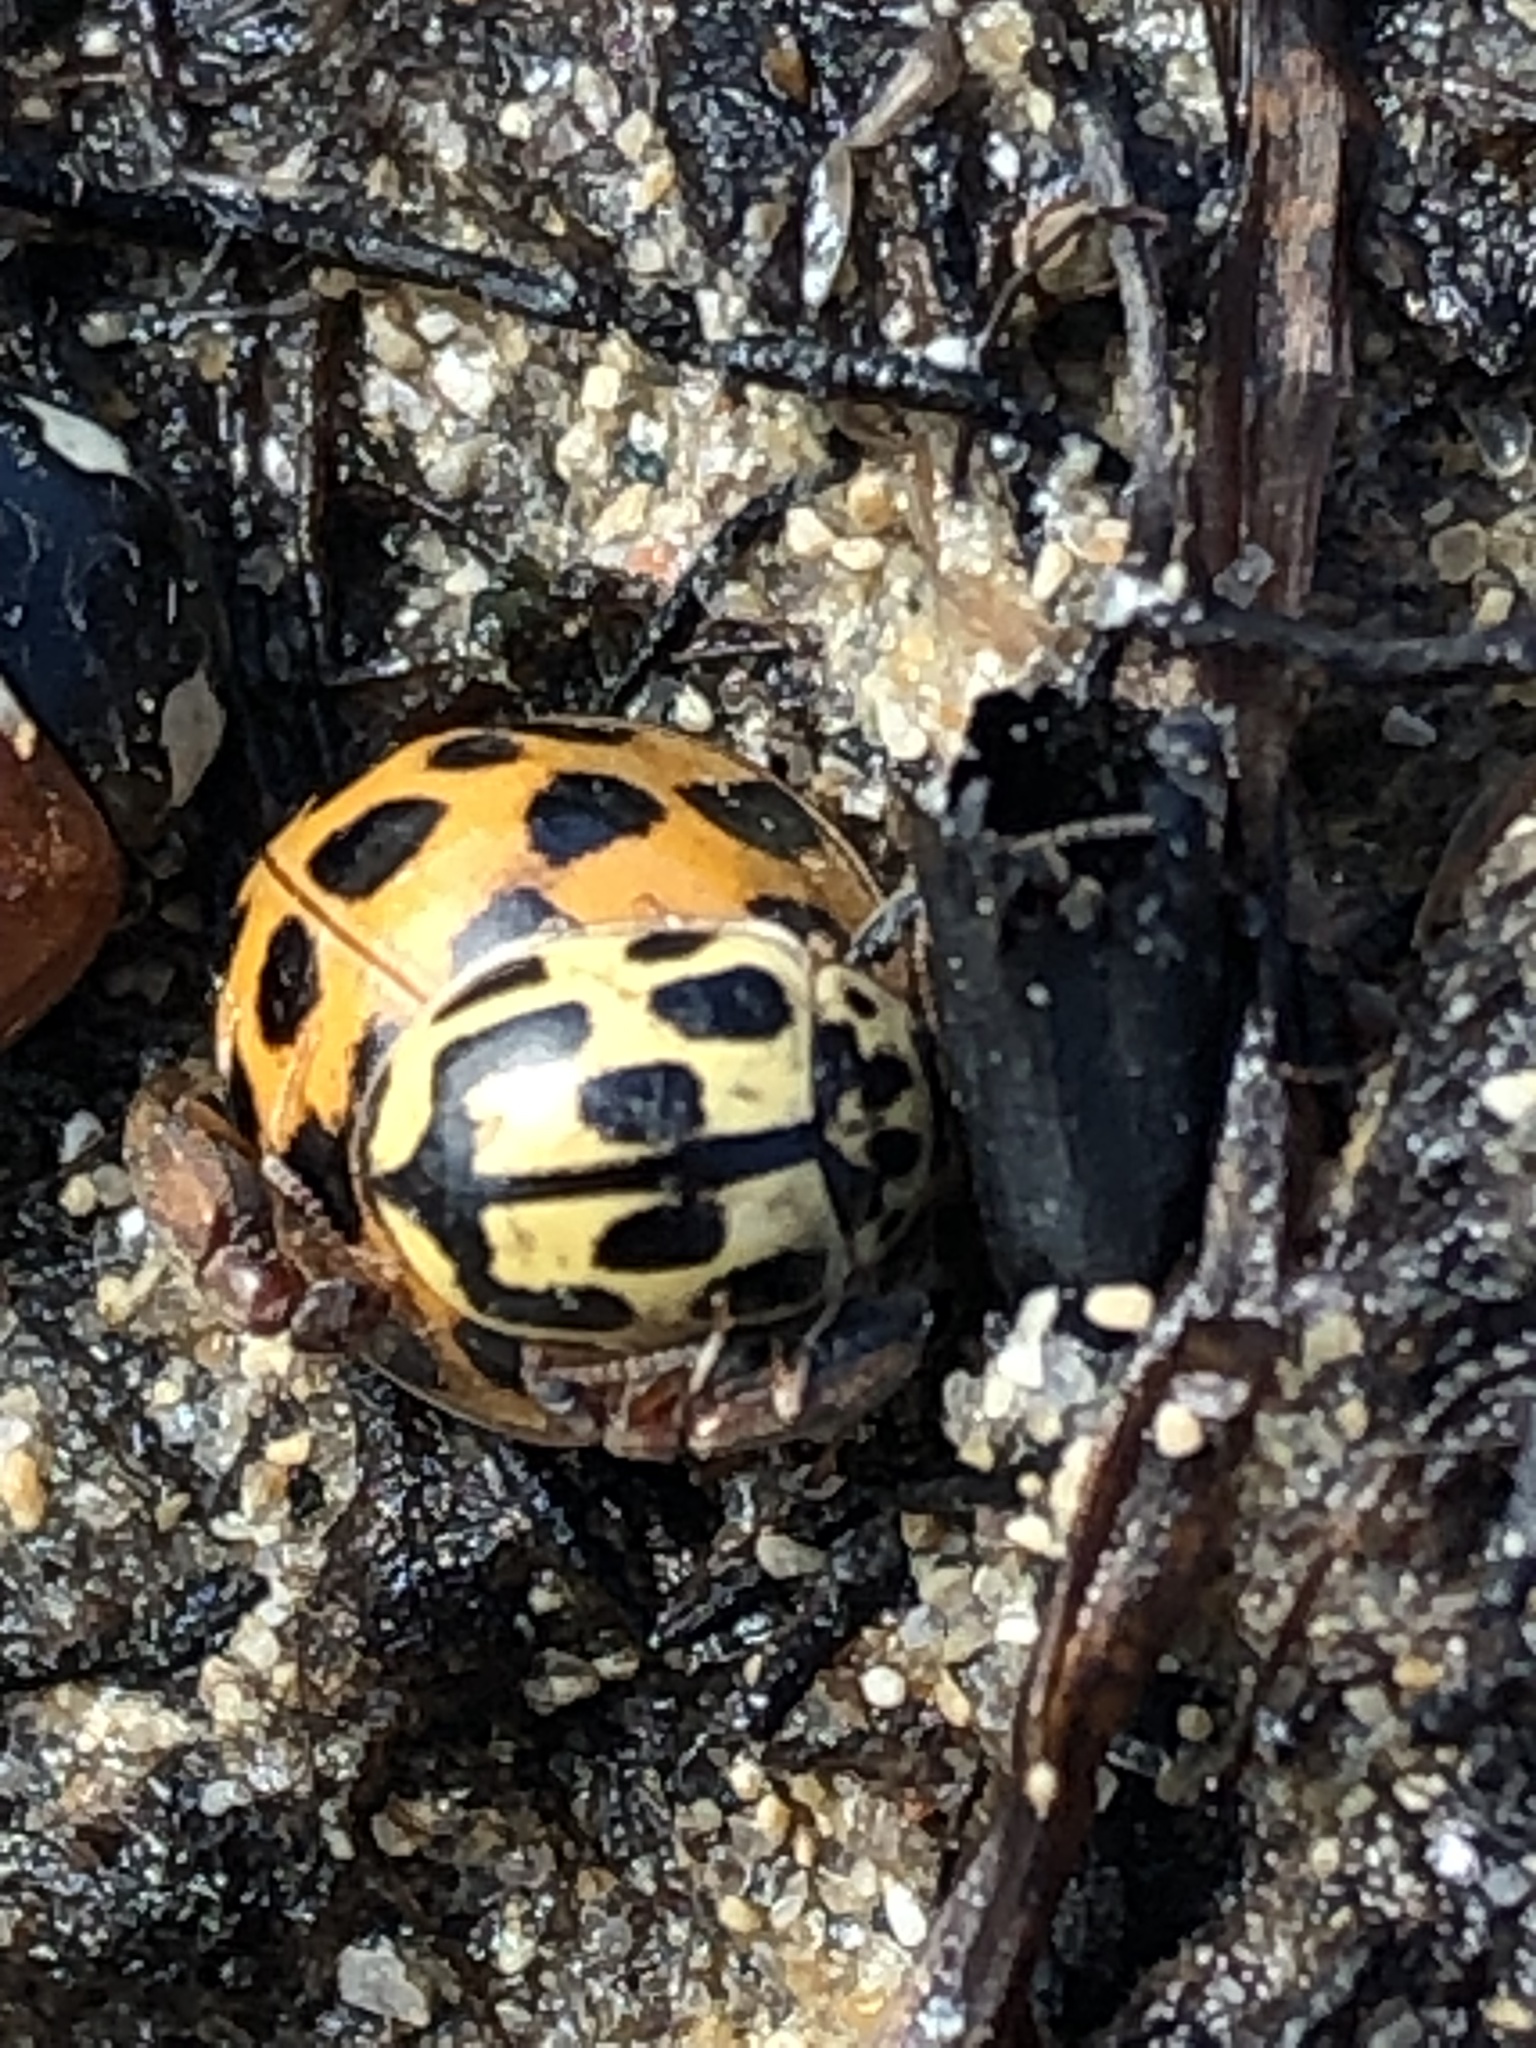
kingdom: Animalia
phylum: Arthropoda
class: Insecta
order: Coleoptera
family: Coccinellidae
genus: Propylaea
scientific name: Propylaea quatuordecimpunctata
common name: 14-spotted ladybird beetle
